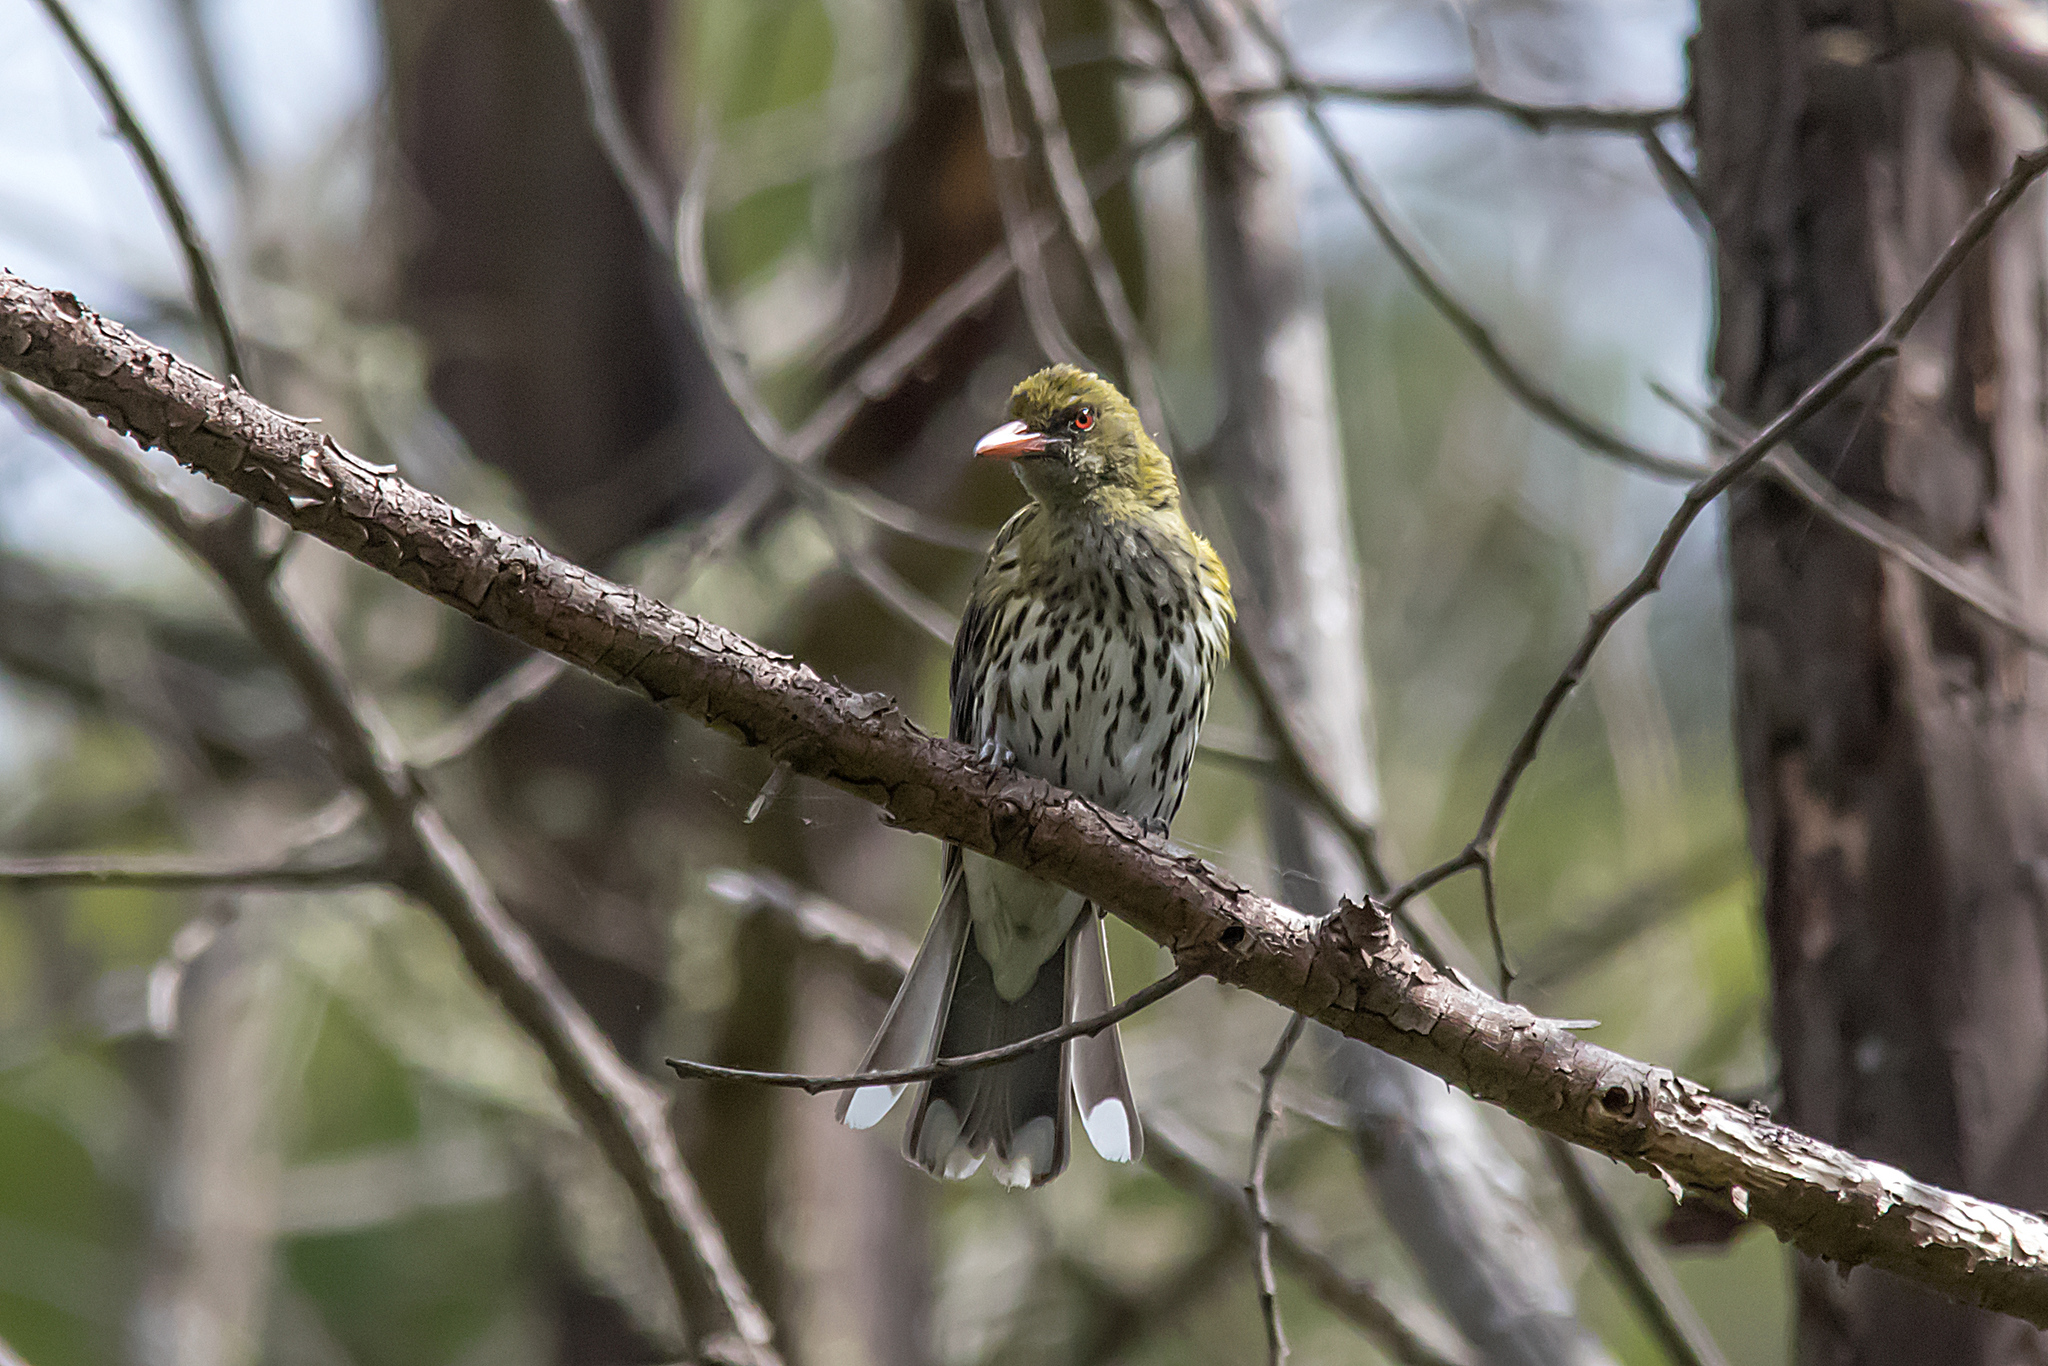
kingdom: Animalia
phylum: Chordata
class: Aves
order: Passeriformes
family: Oriolidae
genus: Oriolus
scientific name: Oriolus sagittatus
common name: Olive-backed oriole
